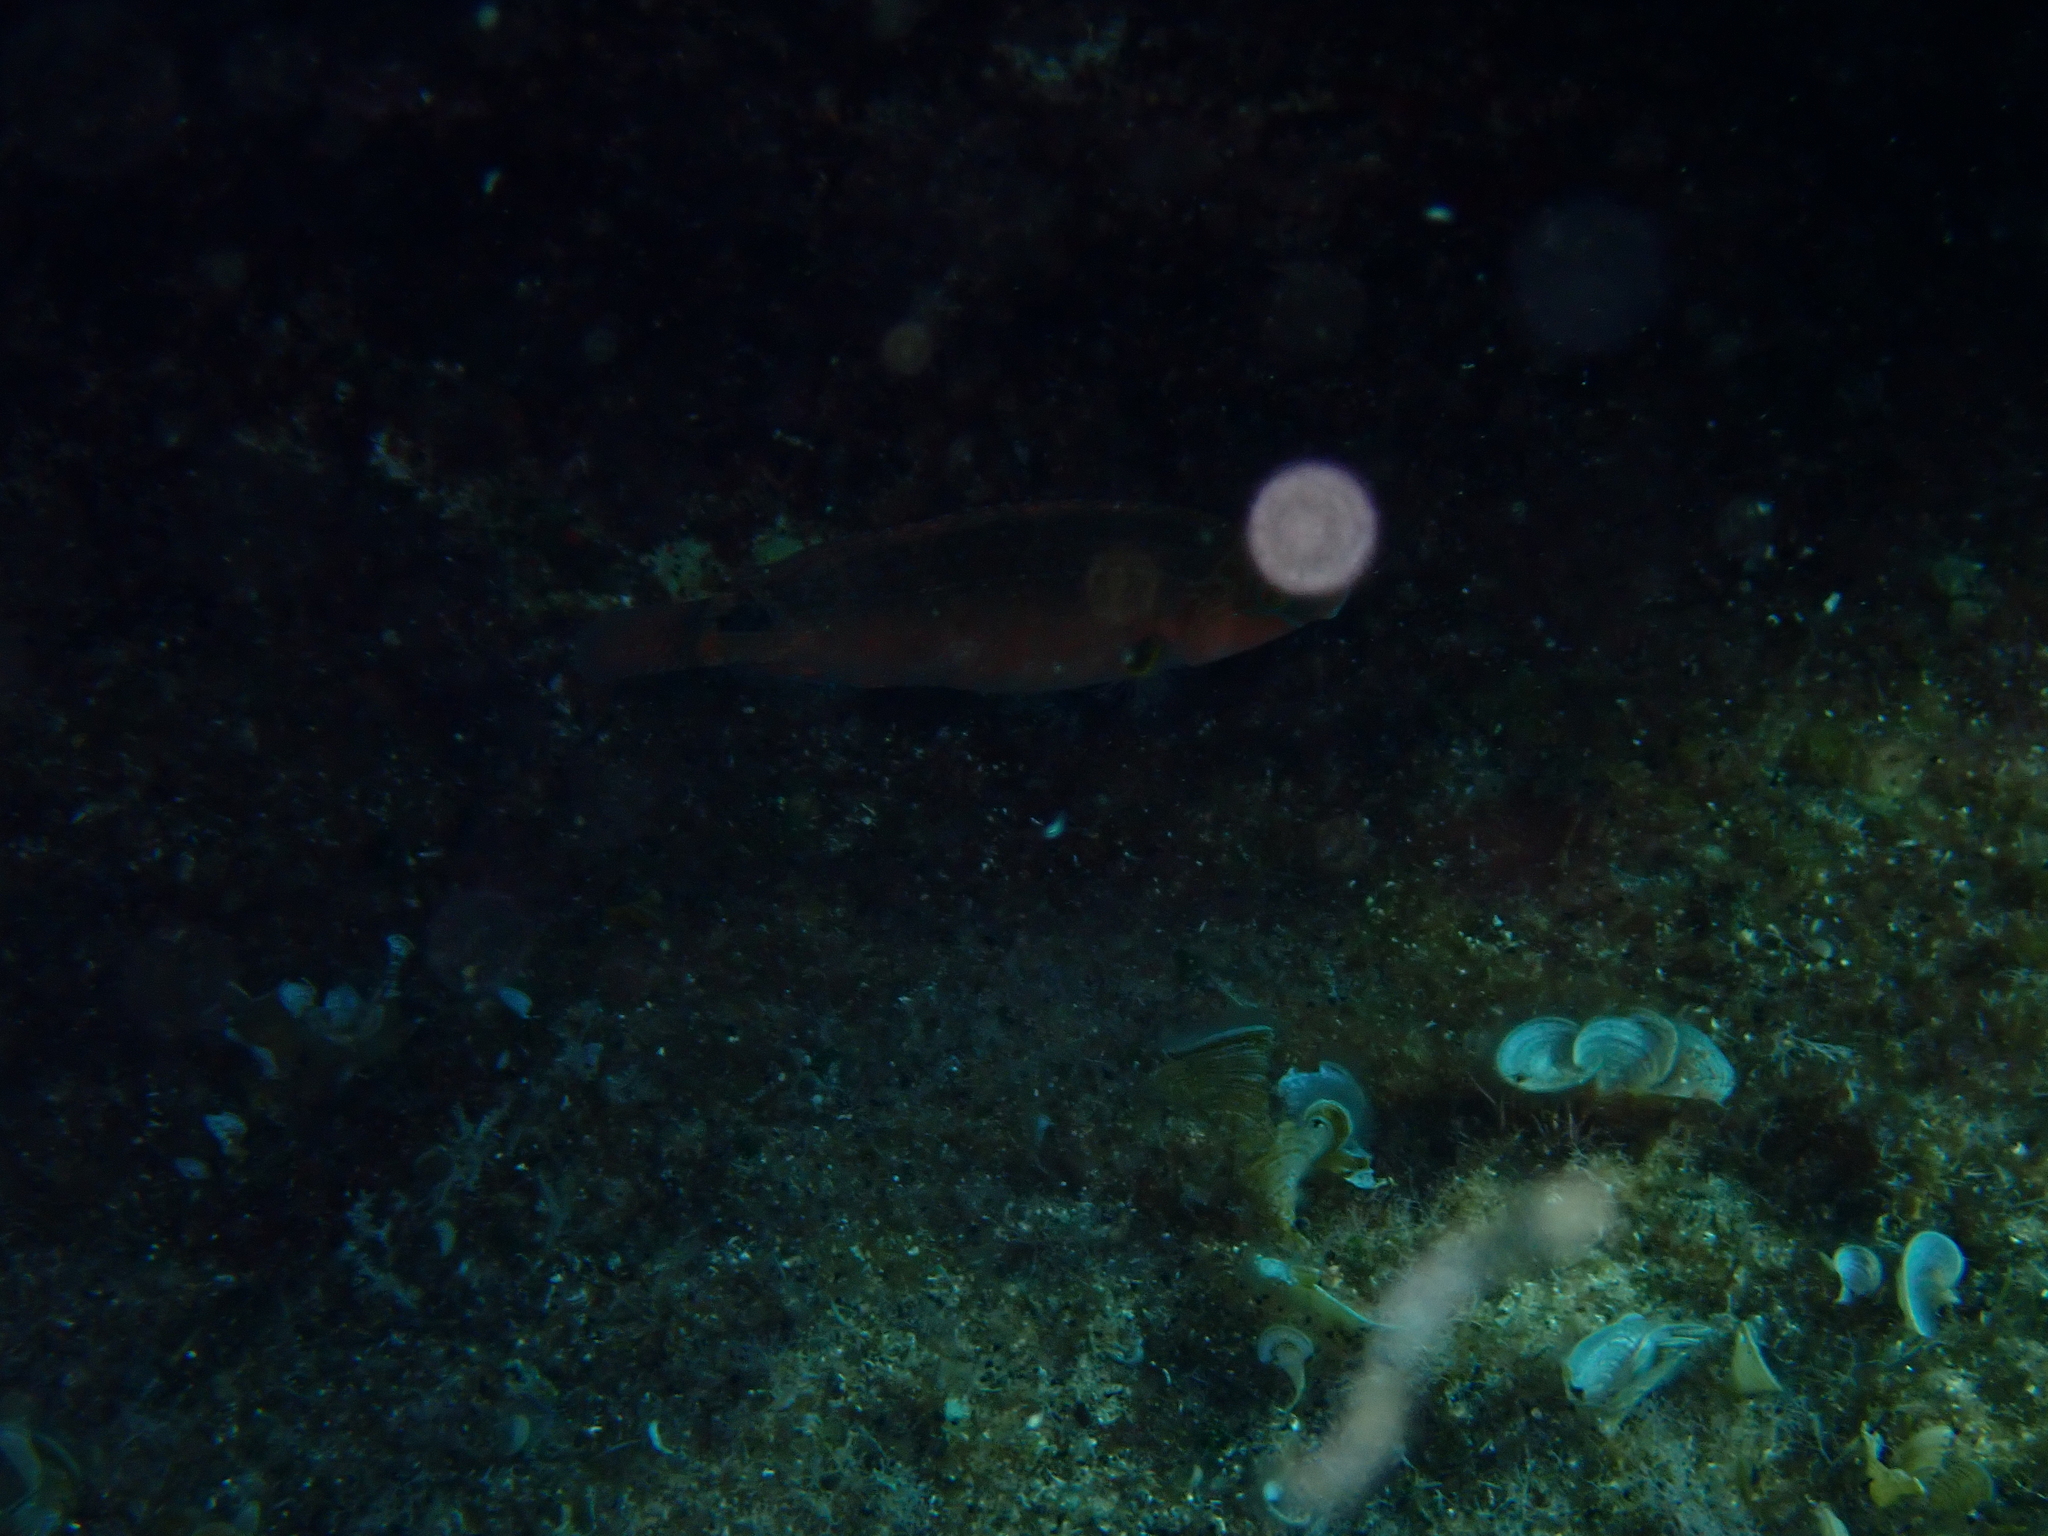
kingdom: Animalia
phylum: Chordata
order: Perciformes
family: Labridae
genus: Symphodus
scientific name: Symphodus mediterraneus
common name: Axillary wrasse
